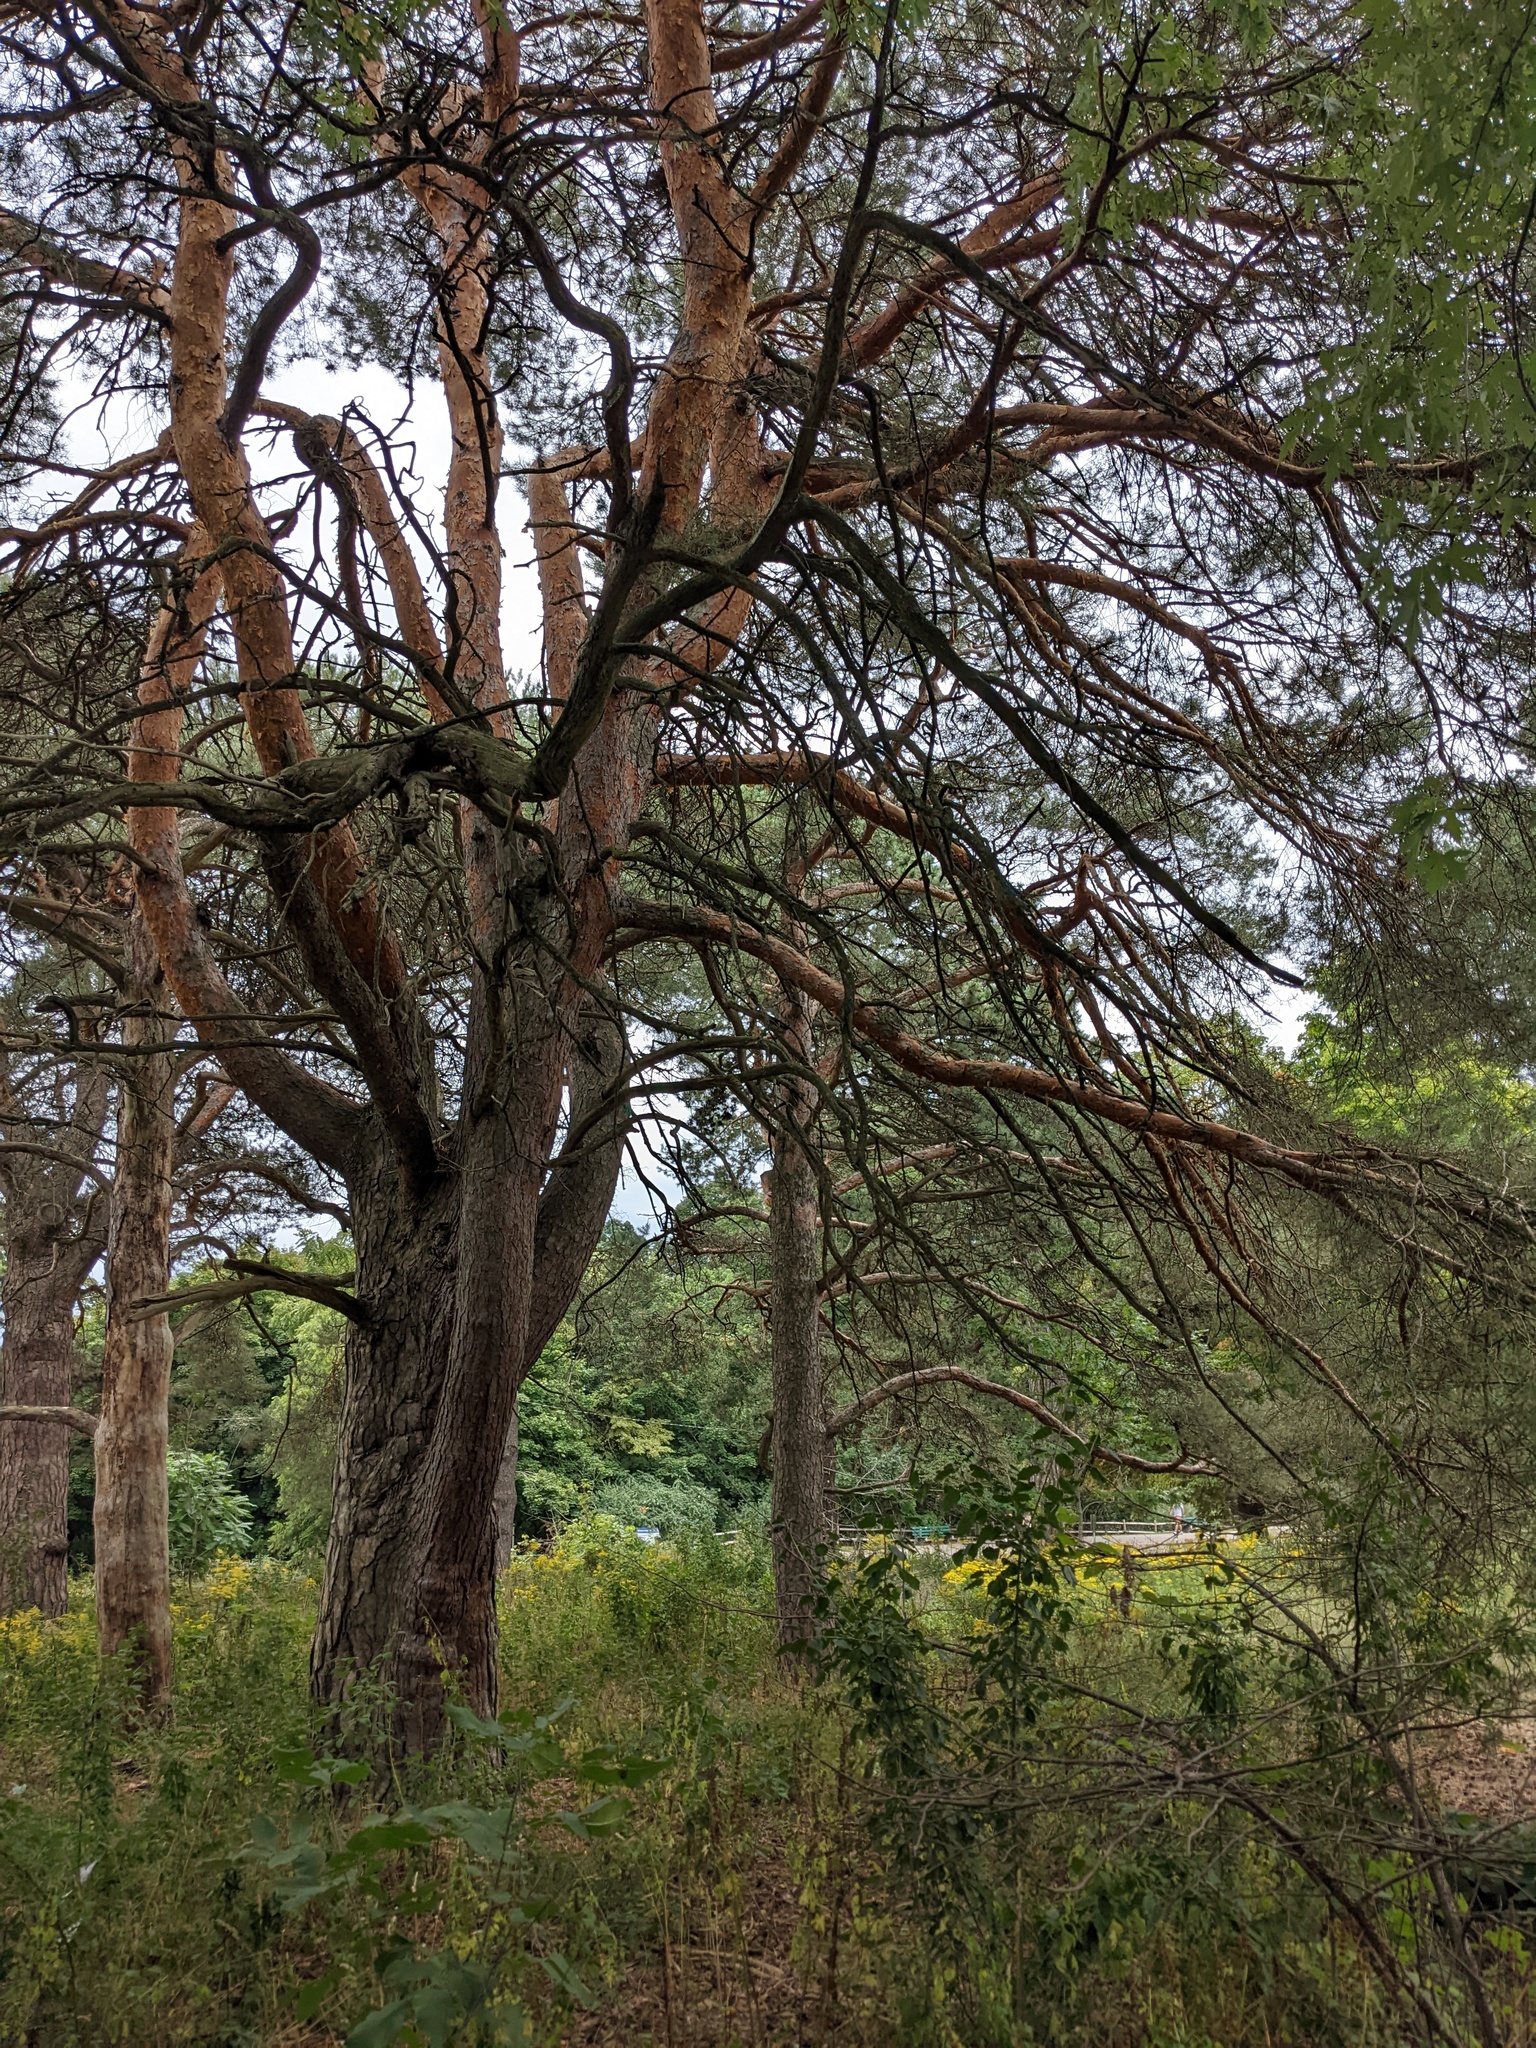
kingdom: Plantae
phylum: Tracheophyta
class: Pinopsida
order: Pinales
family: Pinaceae
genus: Pinus
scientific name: Pinus sylvestris
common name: Scots pine
